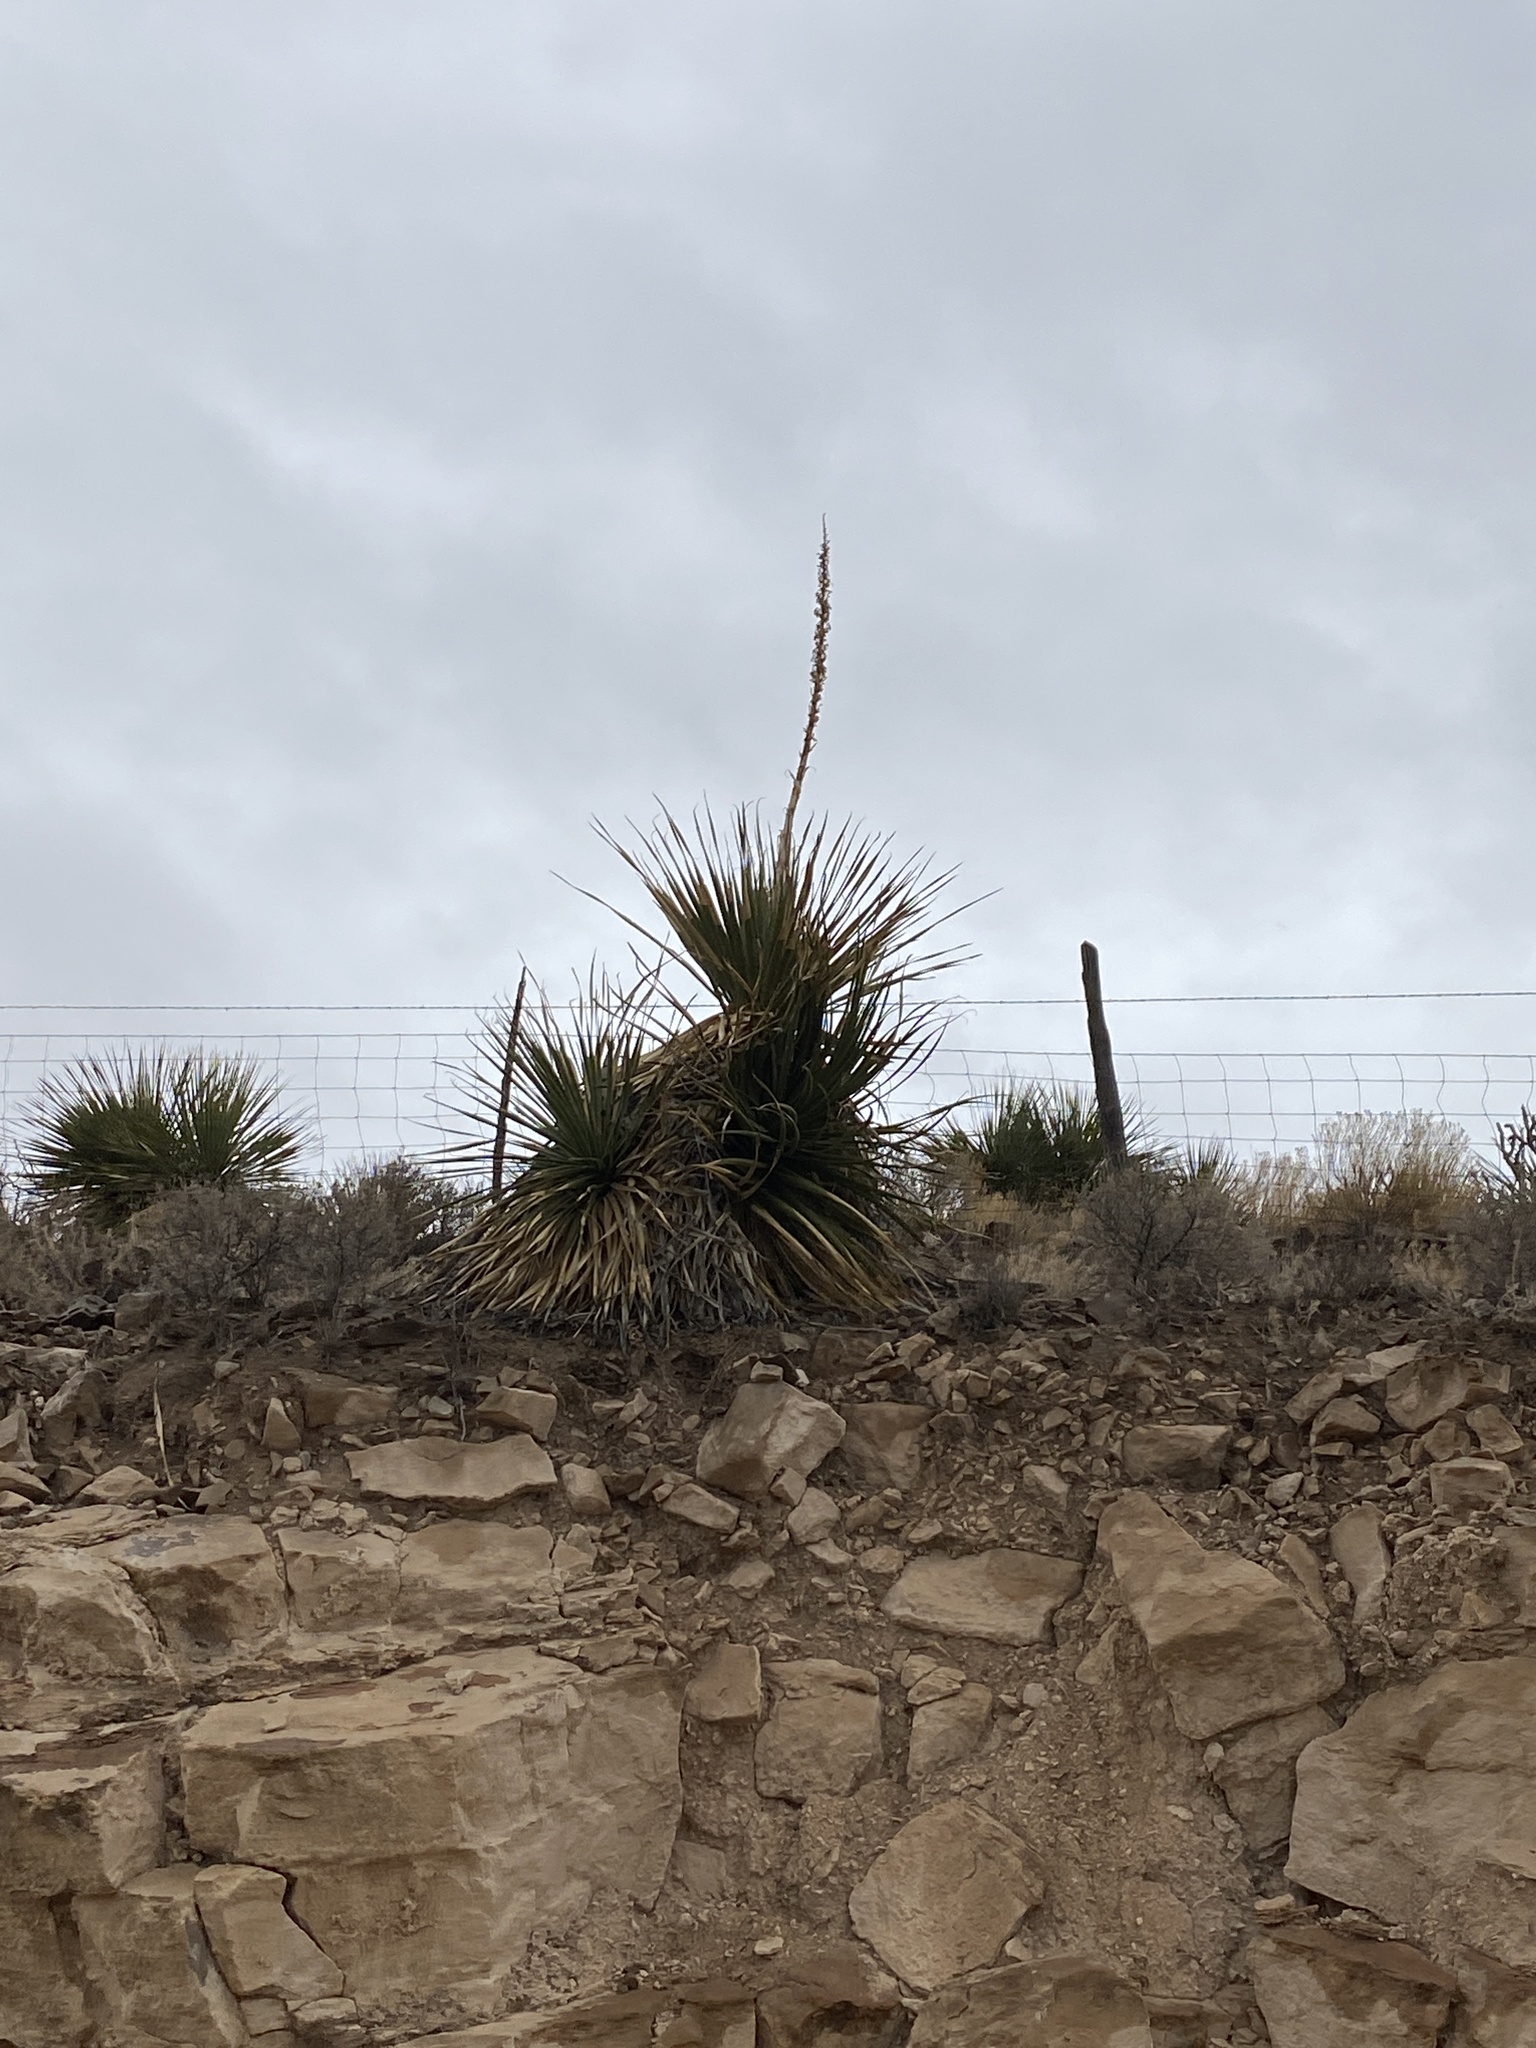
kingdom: Plantae
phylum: Tracheophyta
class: Liliopsida
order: Asparagales
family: Asparagaceae
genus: Dasylirion
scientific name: Dasylirion wheeleri
